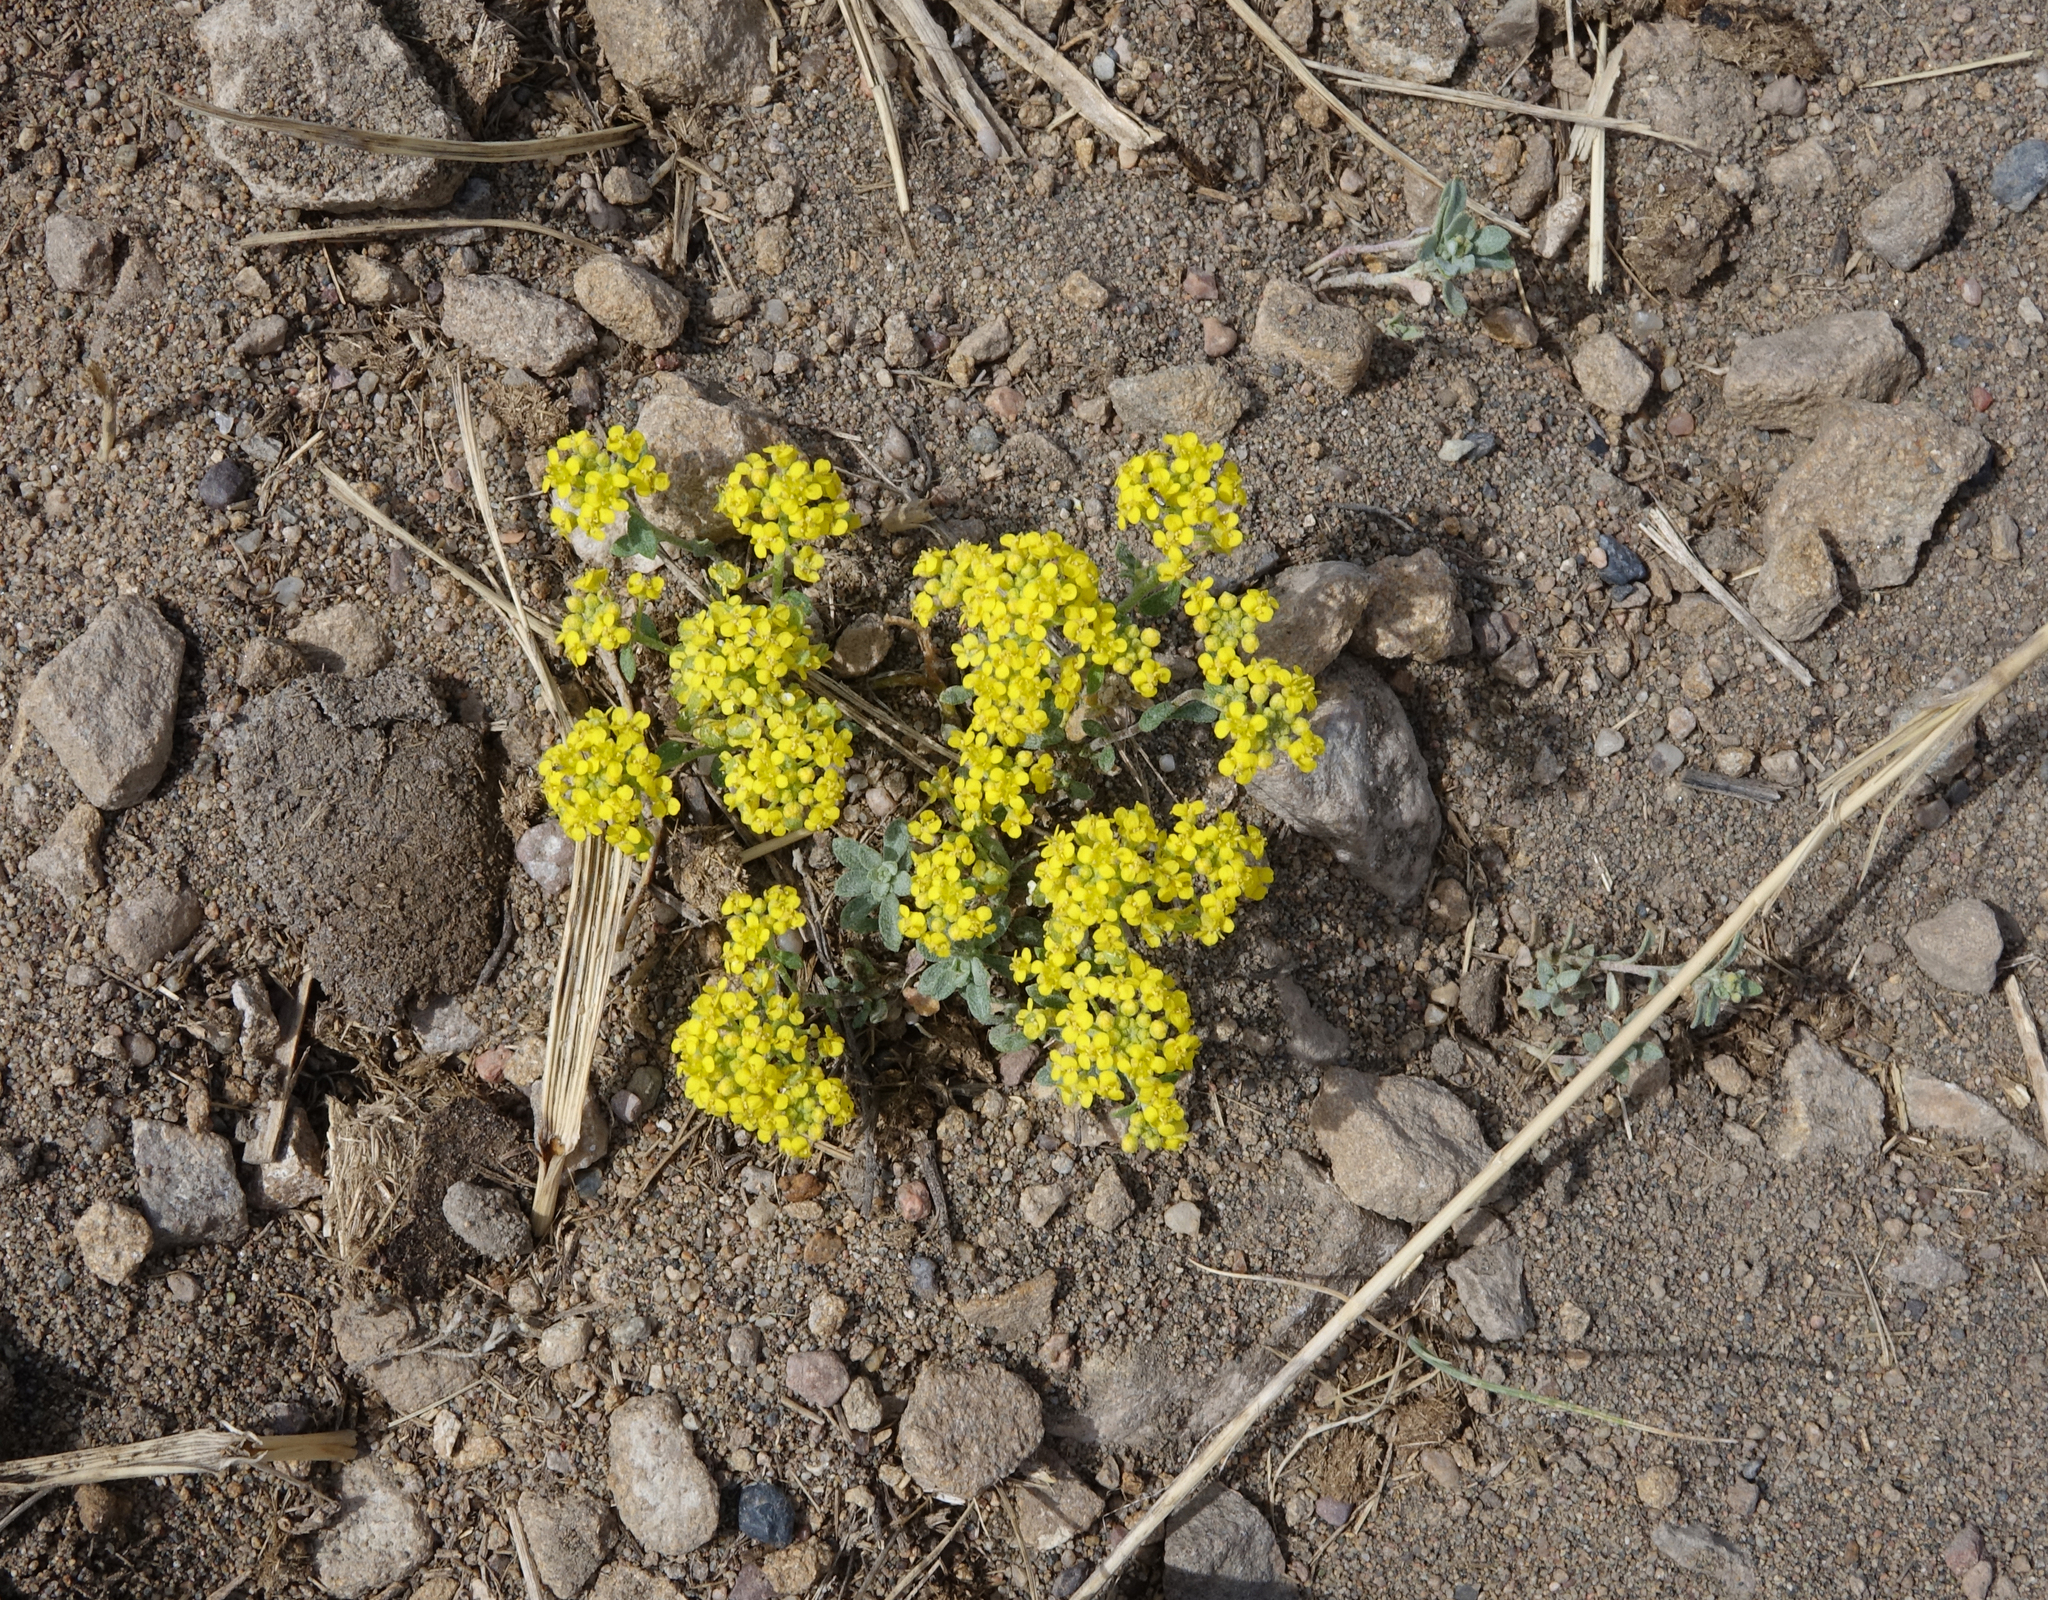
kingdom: Plantae
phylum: Tracheophyta
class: Magnoliopsida
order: Brassicales
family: Brassicaceae
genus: Odontarrhena
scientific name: Odontarrhena obovata
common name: American alyssum
